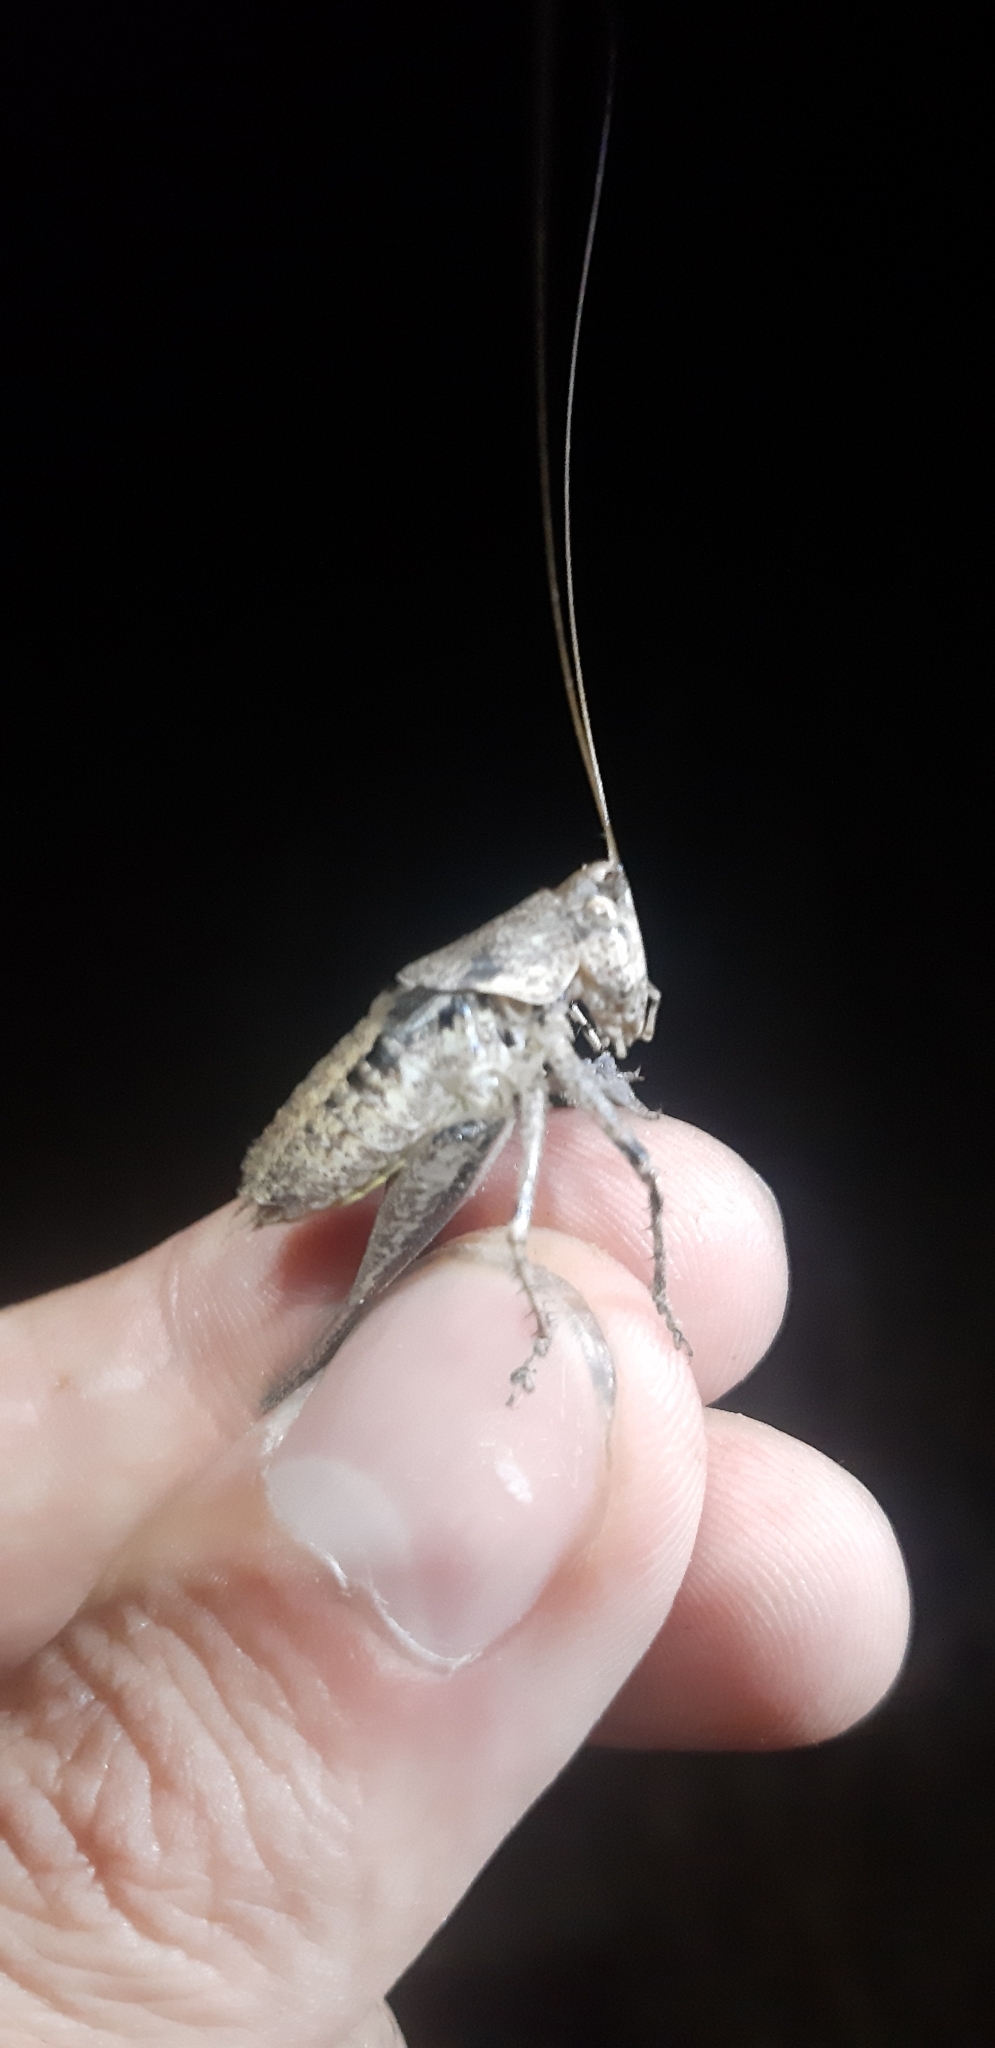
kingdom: Animalia
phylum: Arthropoda
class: Insecta
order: Orthoptera
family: Tettigoniidae
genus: Rhacocleis
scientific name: Rhacocleis germanica
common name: Mediterranean bush-cricket
